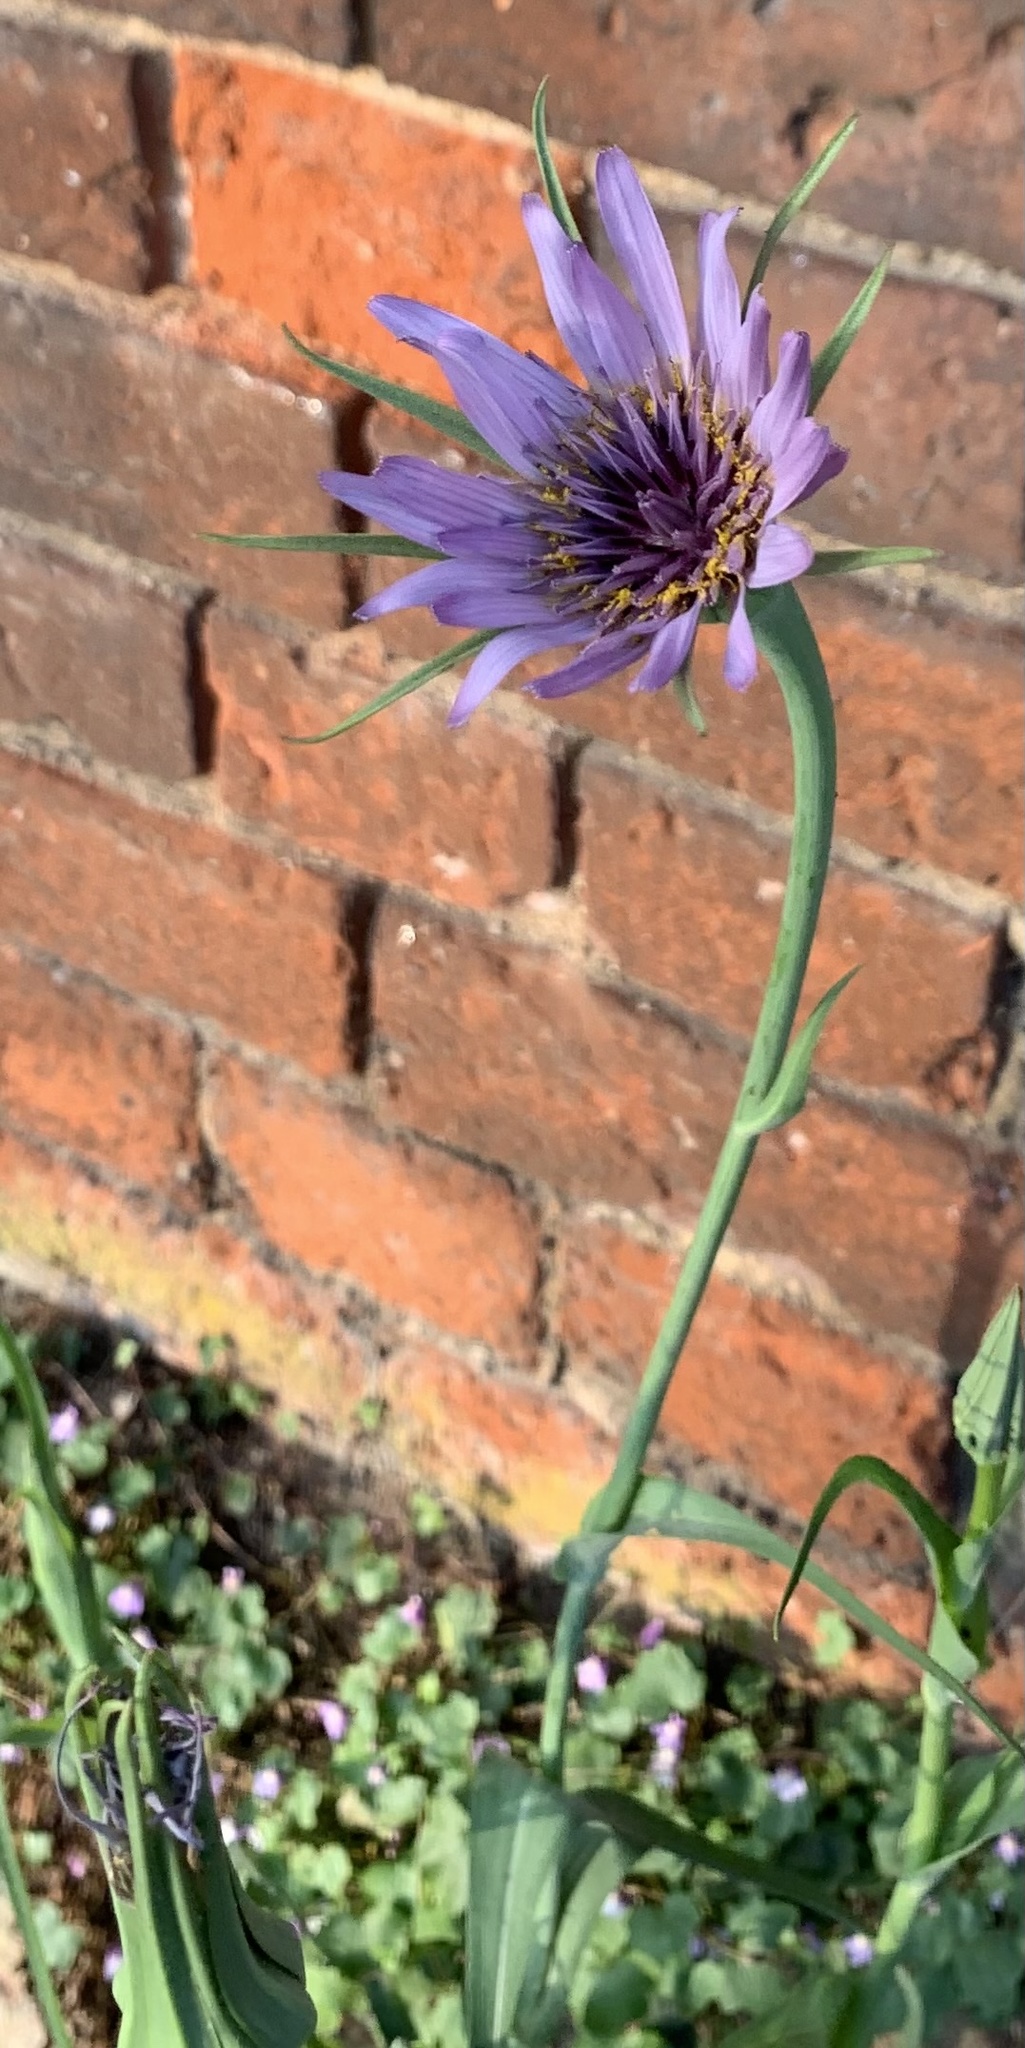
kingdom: Plantae
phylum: Tracheophyta
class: Magnoliopsida
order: Asterales
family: Asteraceae
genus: Tragopogon
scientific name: Tragopogon porrifolius
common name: Salsify
